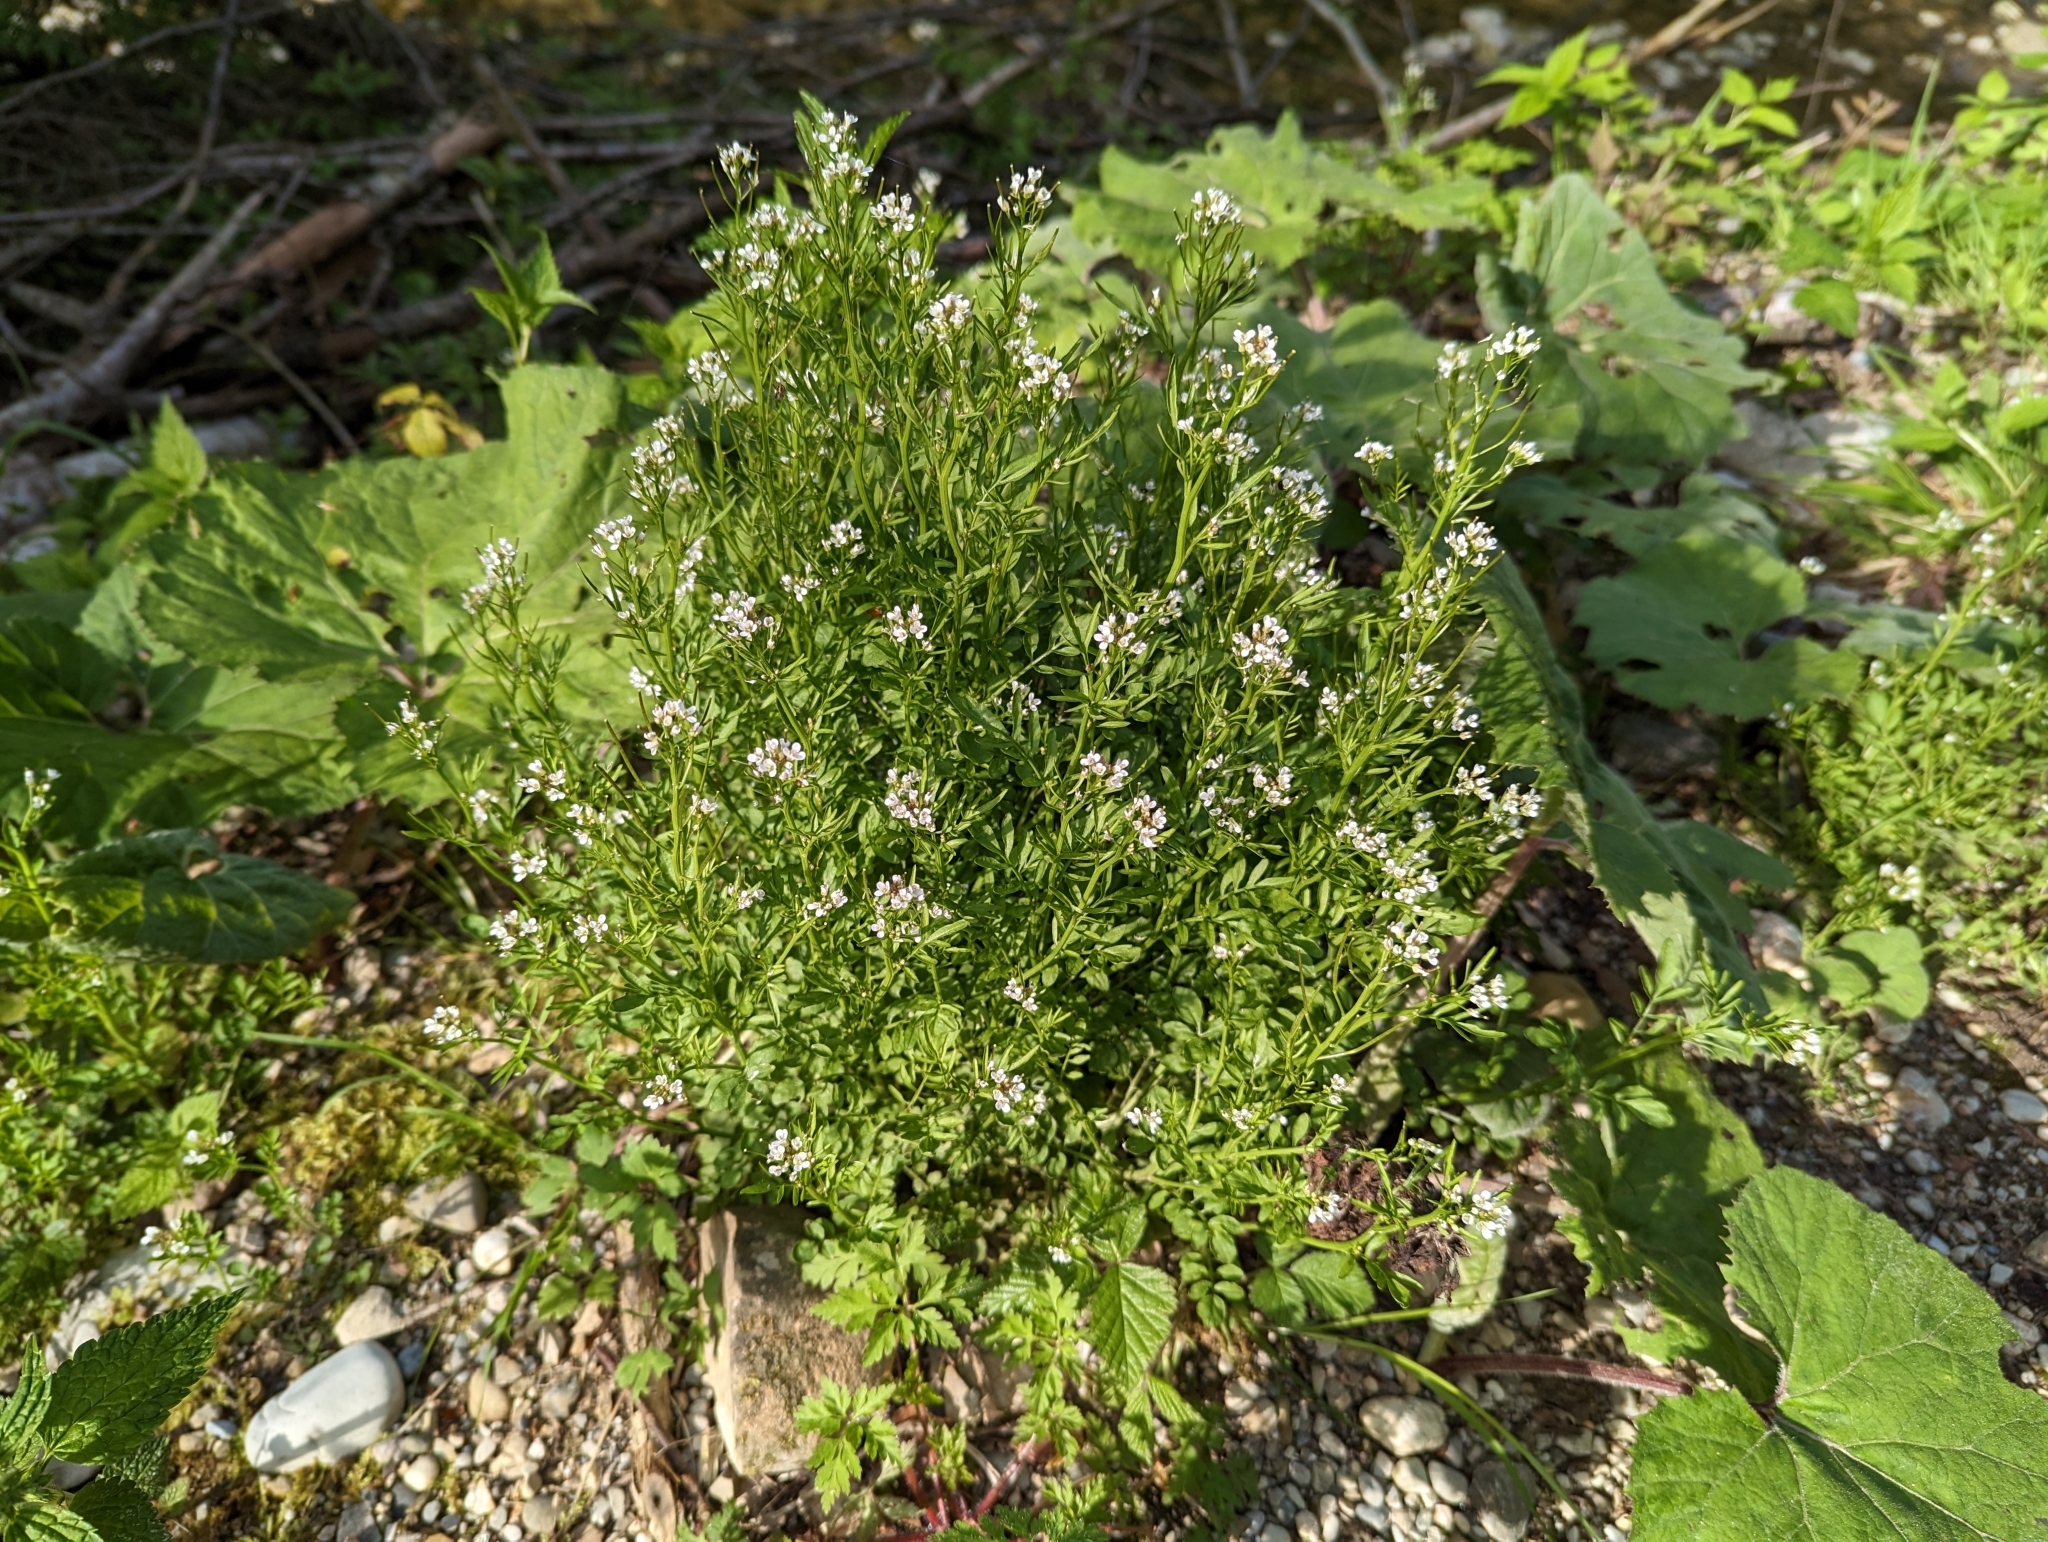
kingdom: Plantae
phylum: Tracheophyta
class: Magnoliopsida
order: Brassicales
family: Brassicaceae
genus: Cardamine
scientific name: Cardamine flexuosa
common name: Woodland bittercress
